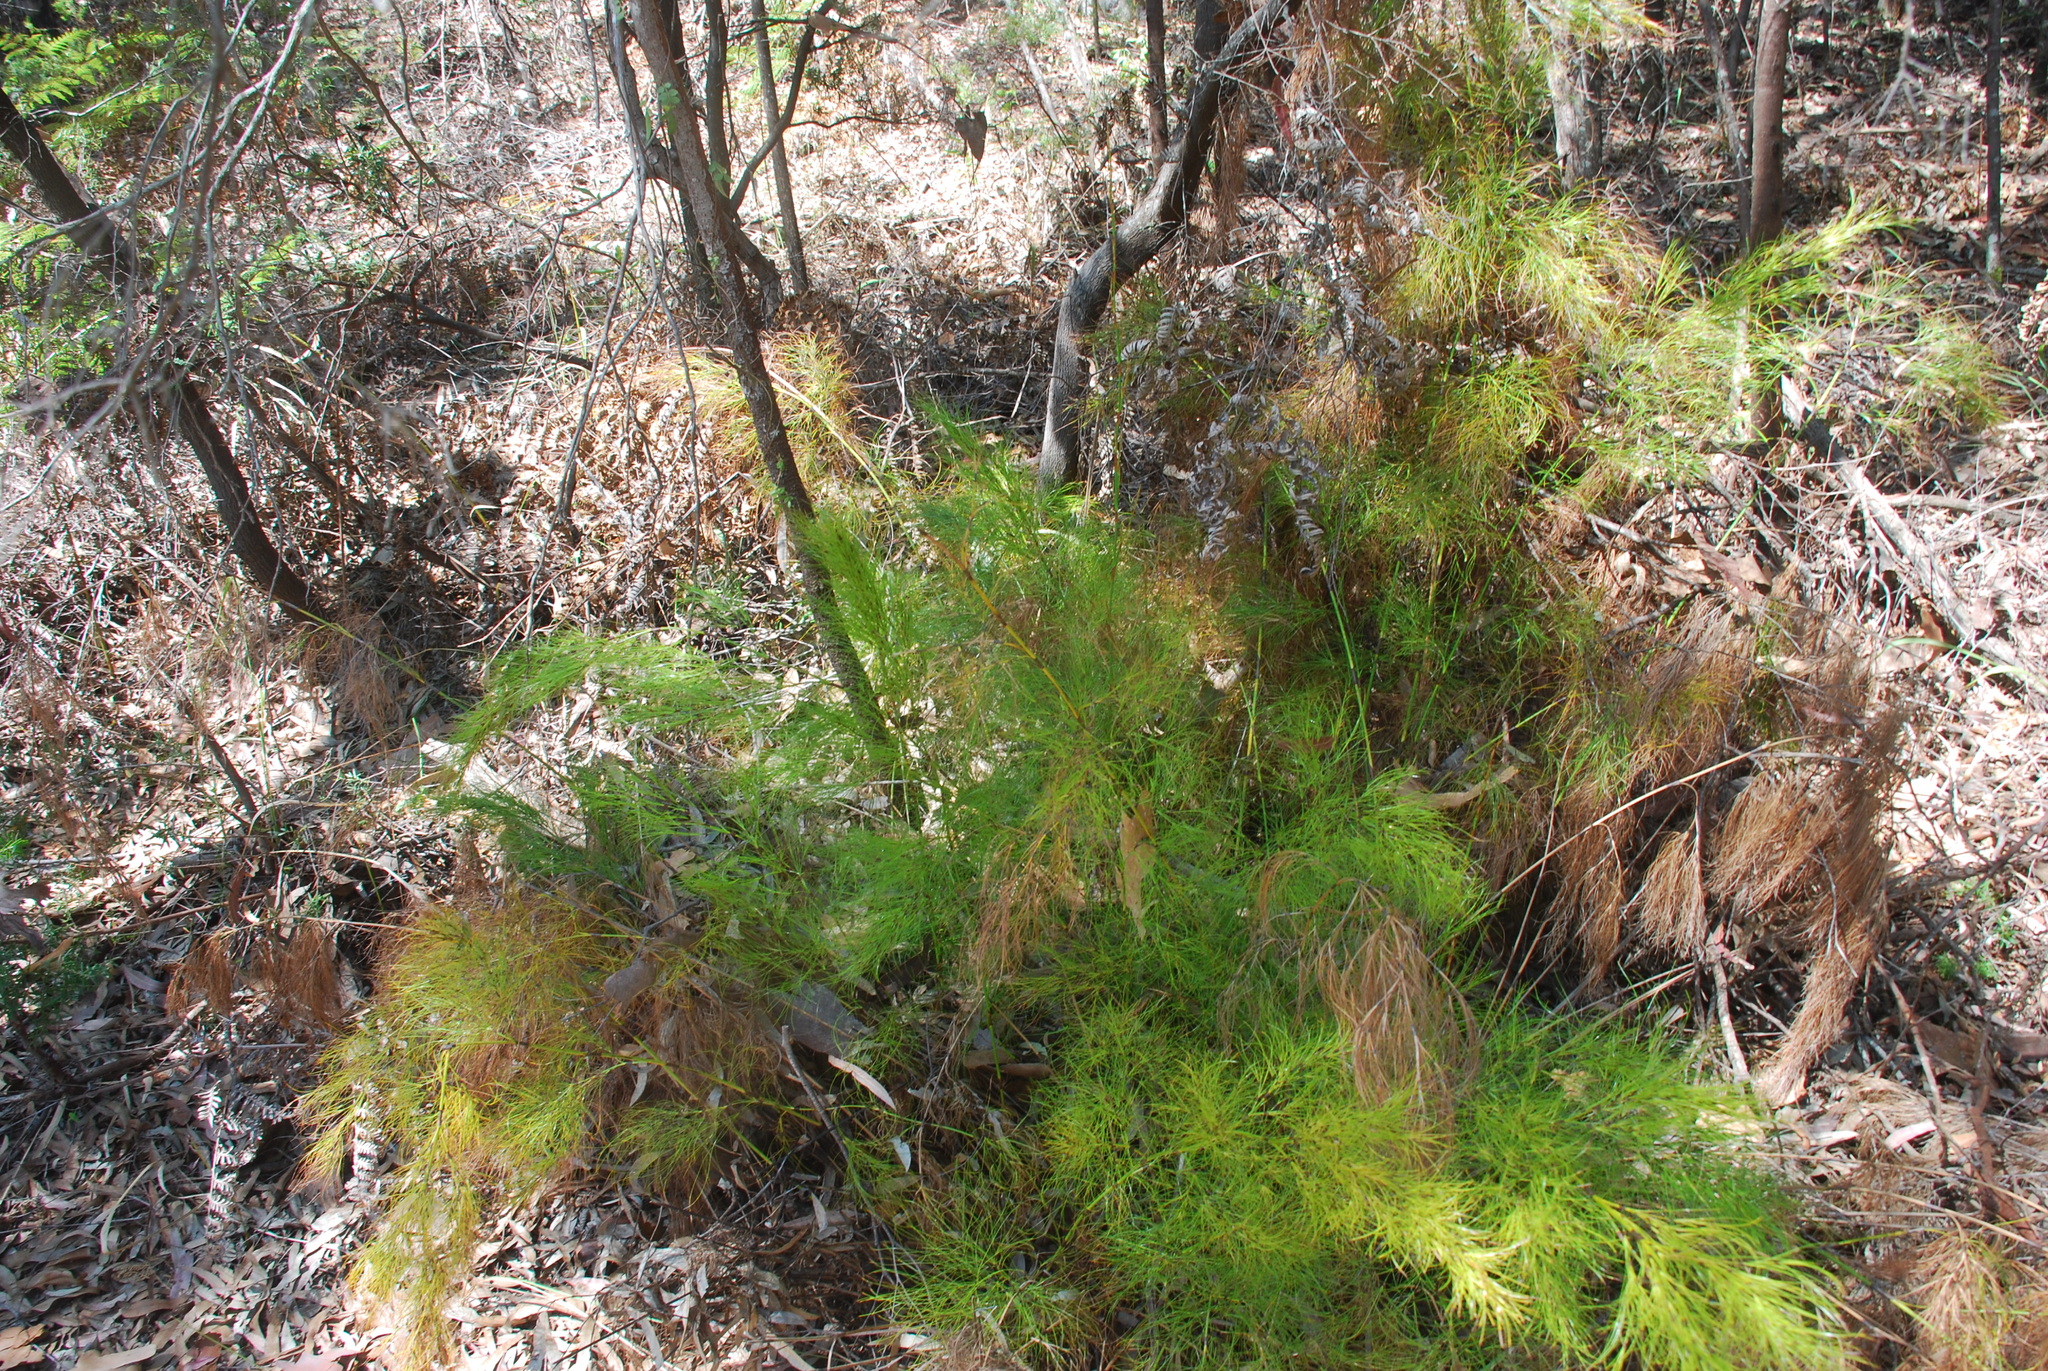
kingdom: Plantae
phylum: Tracheophyta
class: Liliopsida
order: Poales
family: Cyperaceae
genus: Caustis
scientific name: Caustis blakei
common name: Foxtail-fern
